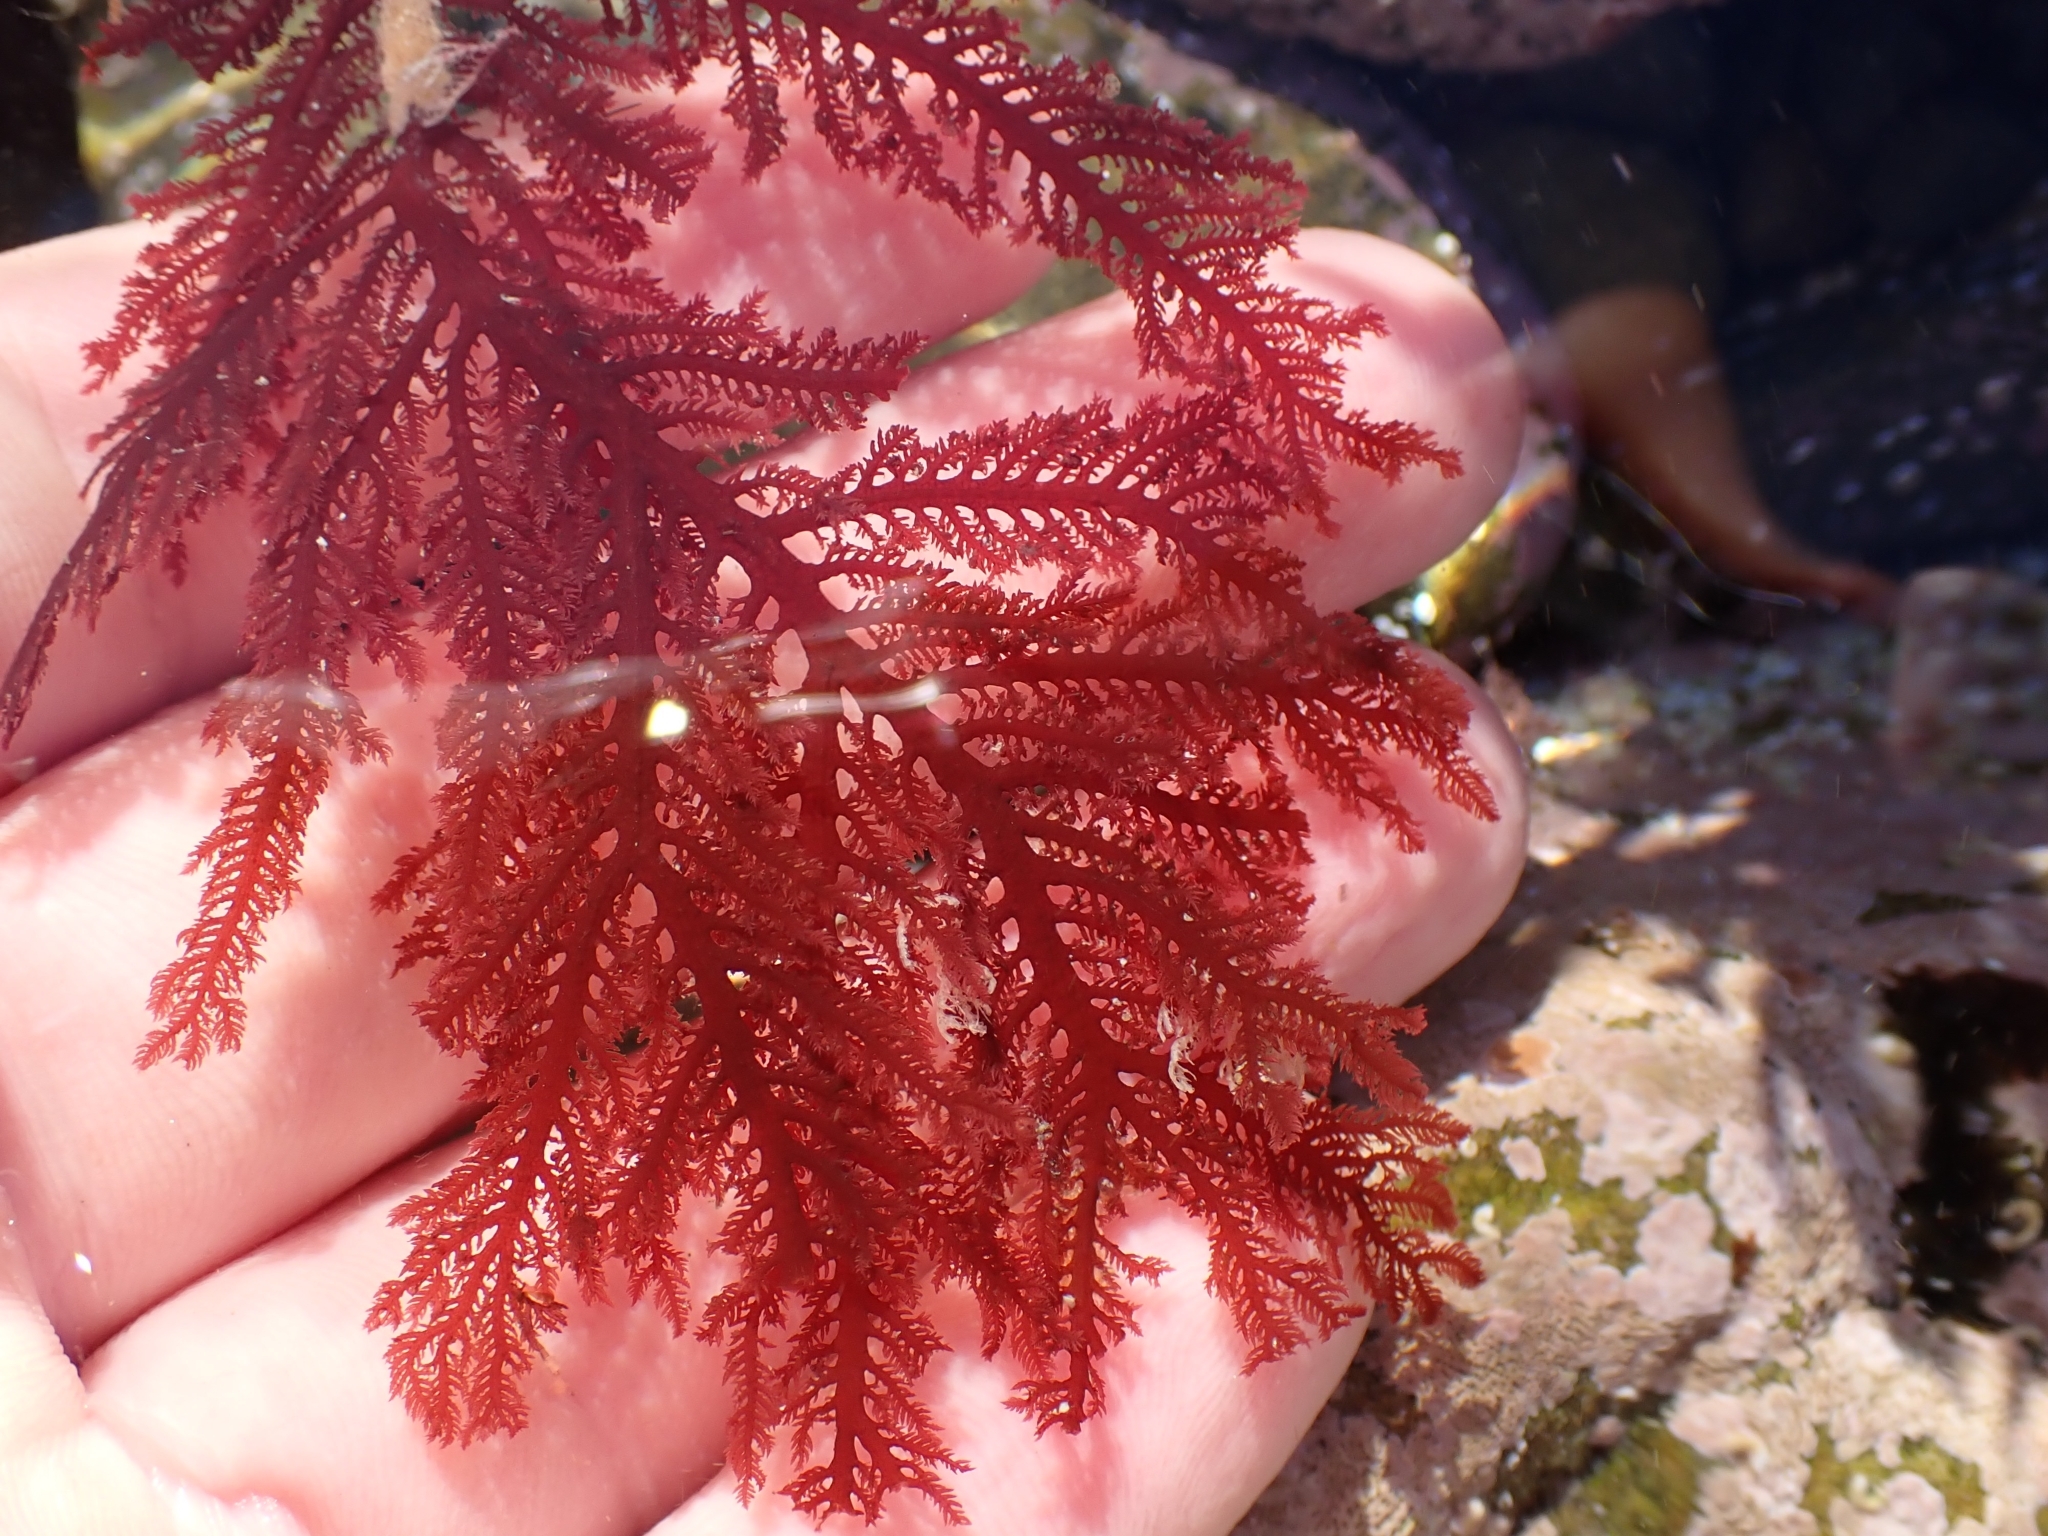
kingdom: Plantae
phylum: Rhodophyta
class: Florideophyceae
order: Ceramiales
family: Callithamniaceae
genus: Euptilota
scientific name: Euptilota formosissima
